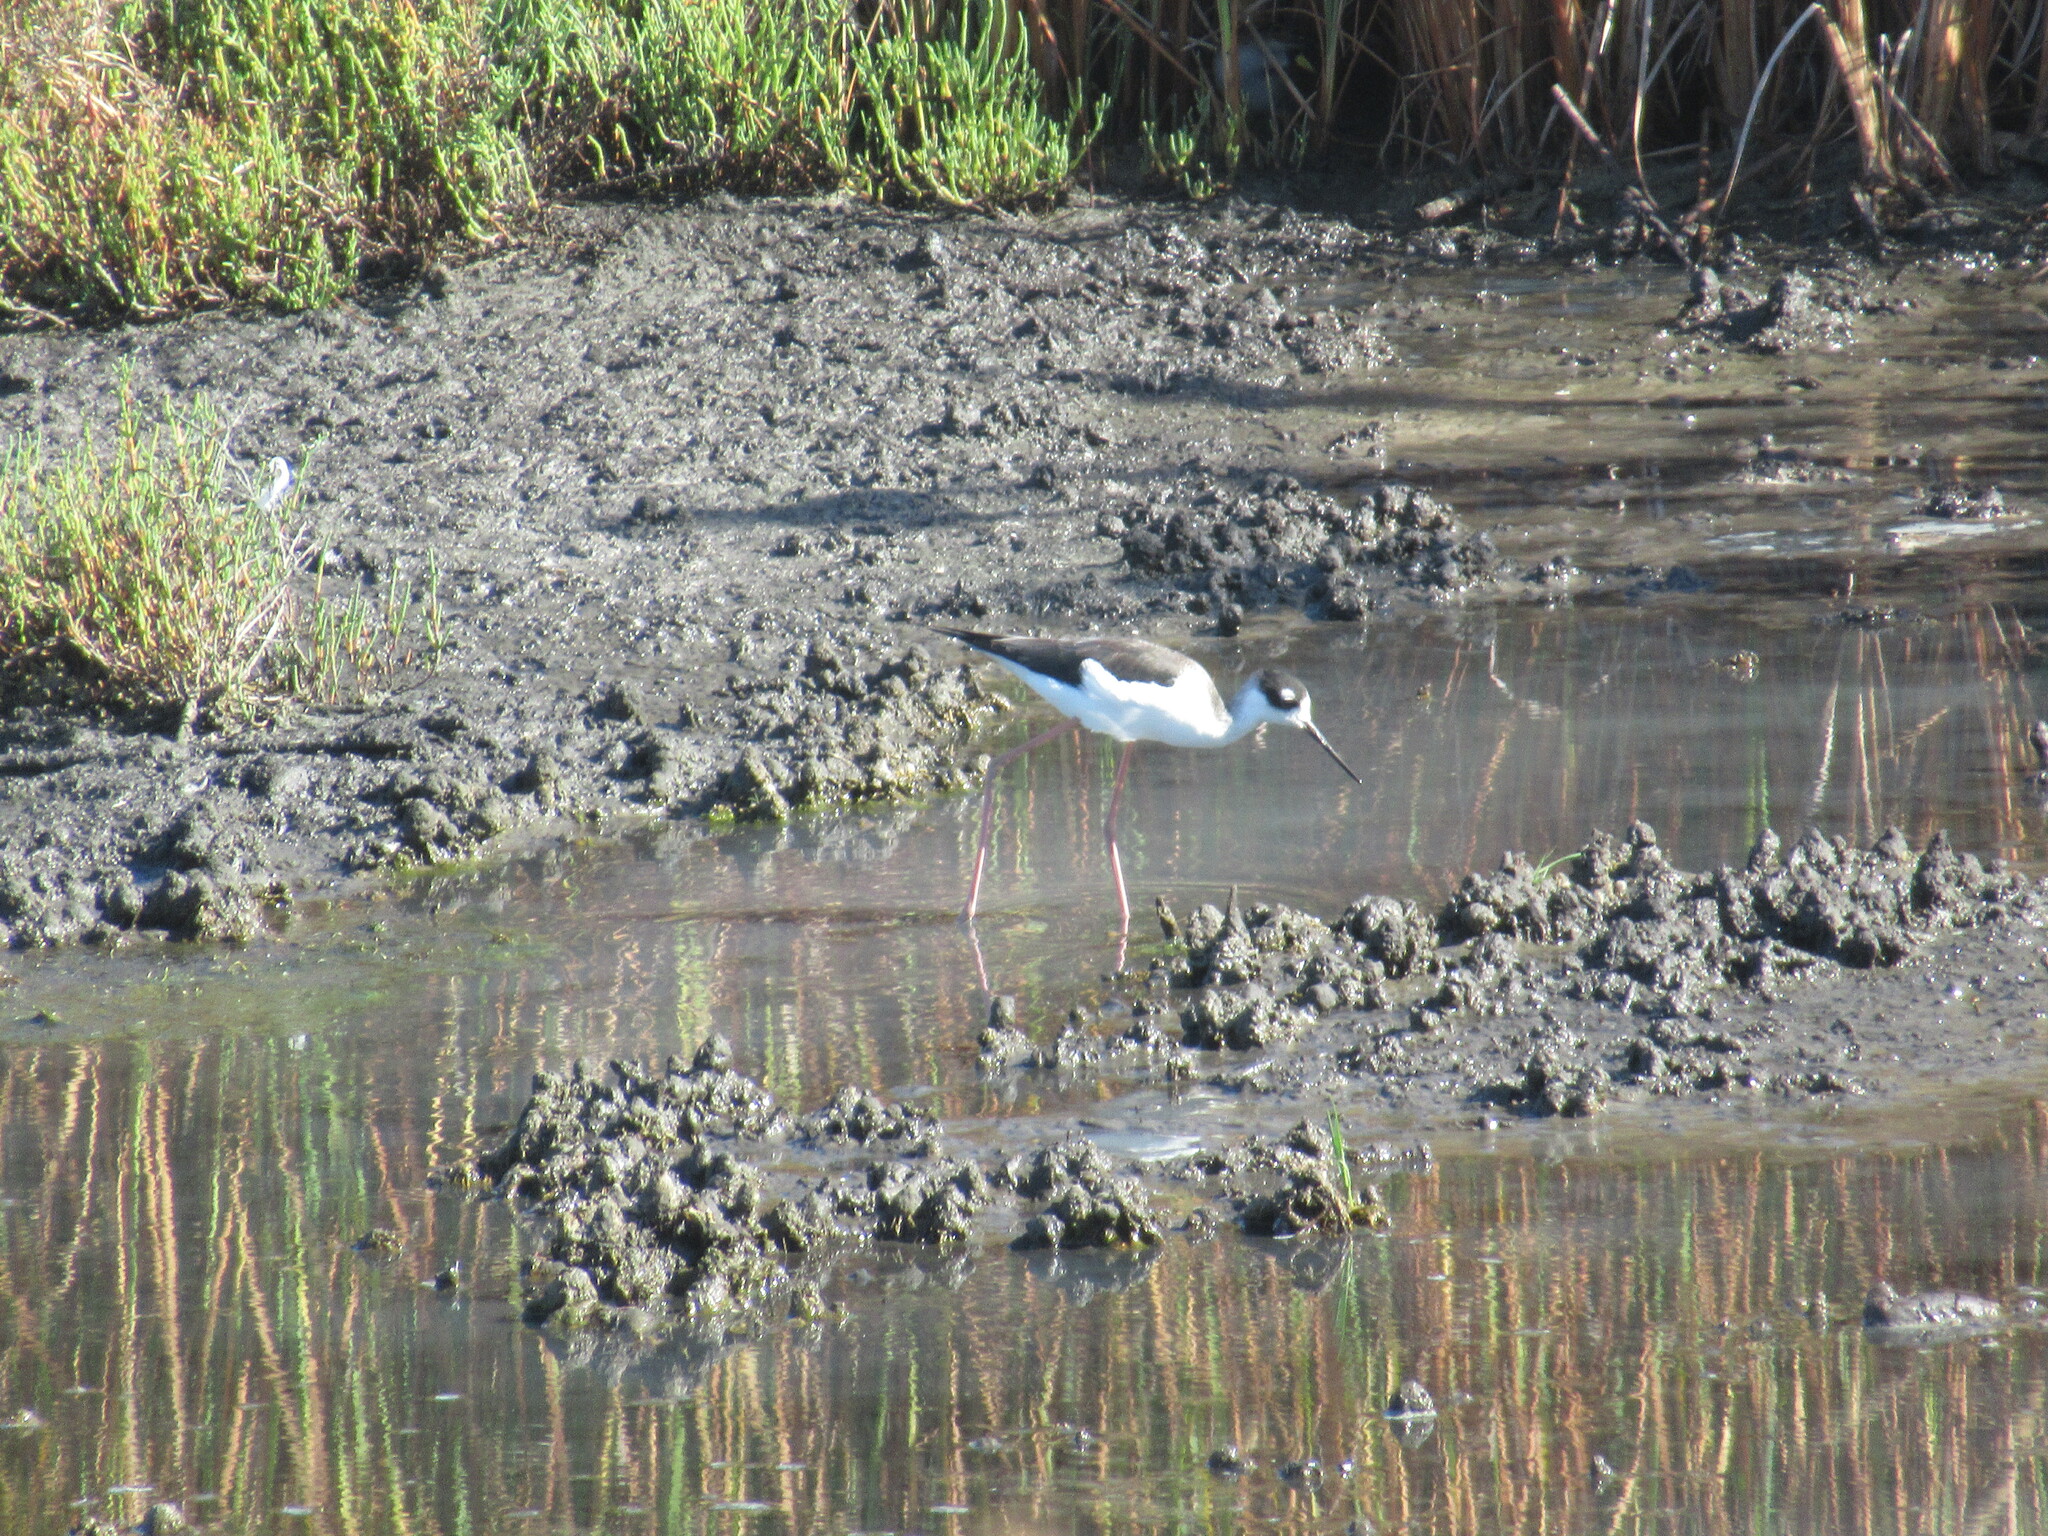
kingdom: Animalia
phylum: Chordata
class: Aves
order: Charadriiformes
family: Recurvirostridae
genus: Himantopus
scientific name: Himantopus mexicanus
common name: Black-necked stilt
